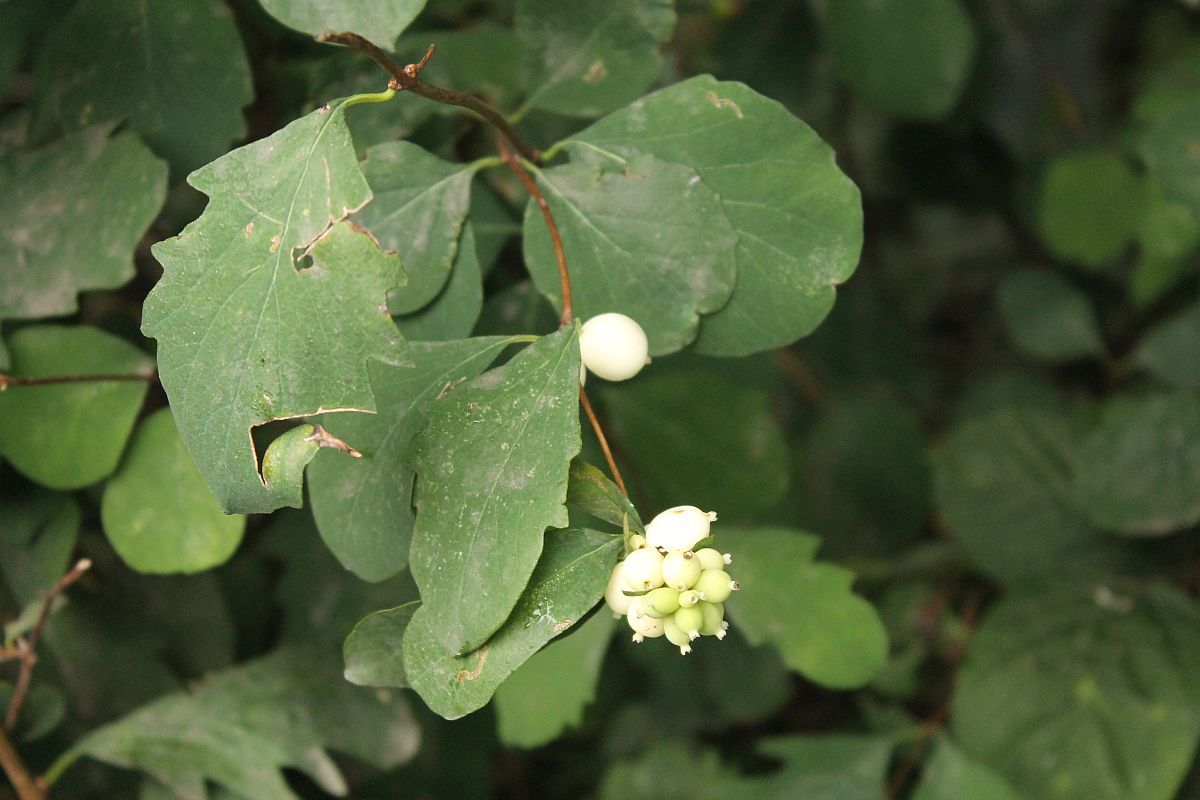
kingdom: Plantae
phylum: Tracheophyta
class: Magnoliopsida
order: Dipsacales
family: Caprifoliaceae
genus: Symphoricarpos
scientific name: Symphoricarpos albus
